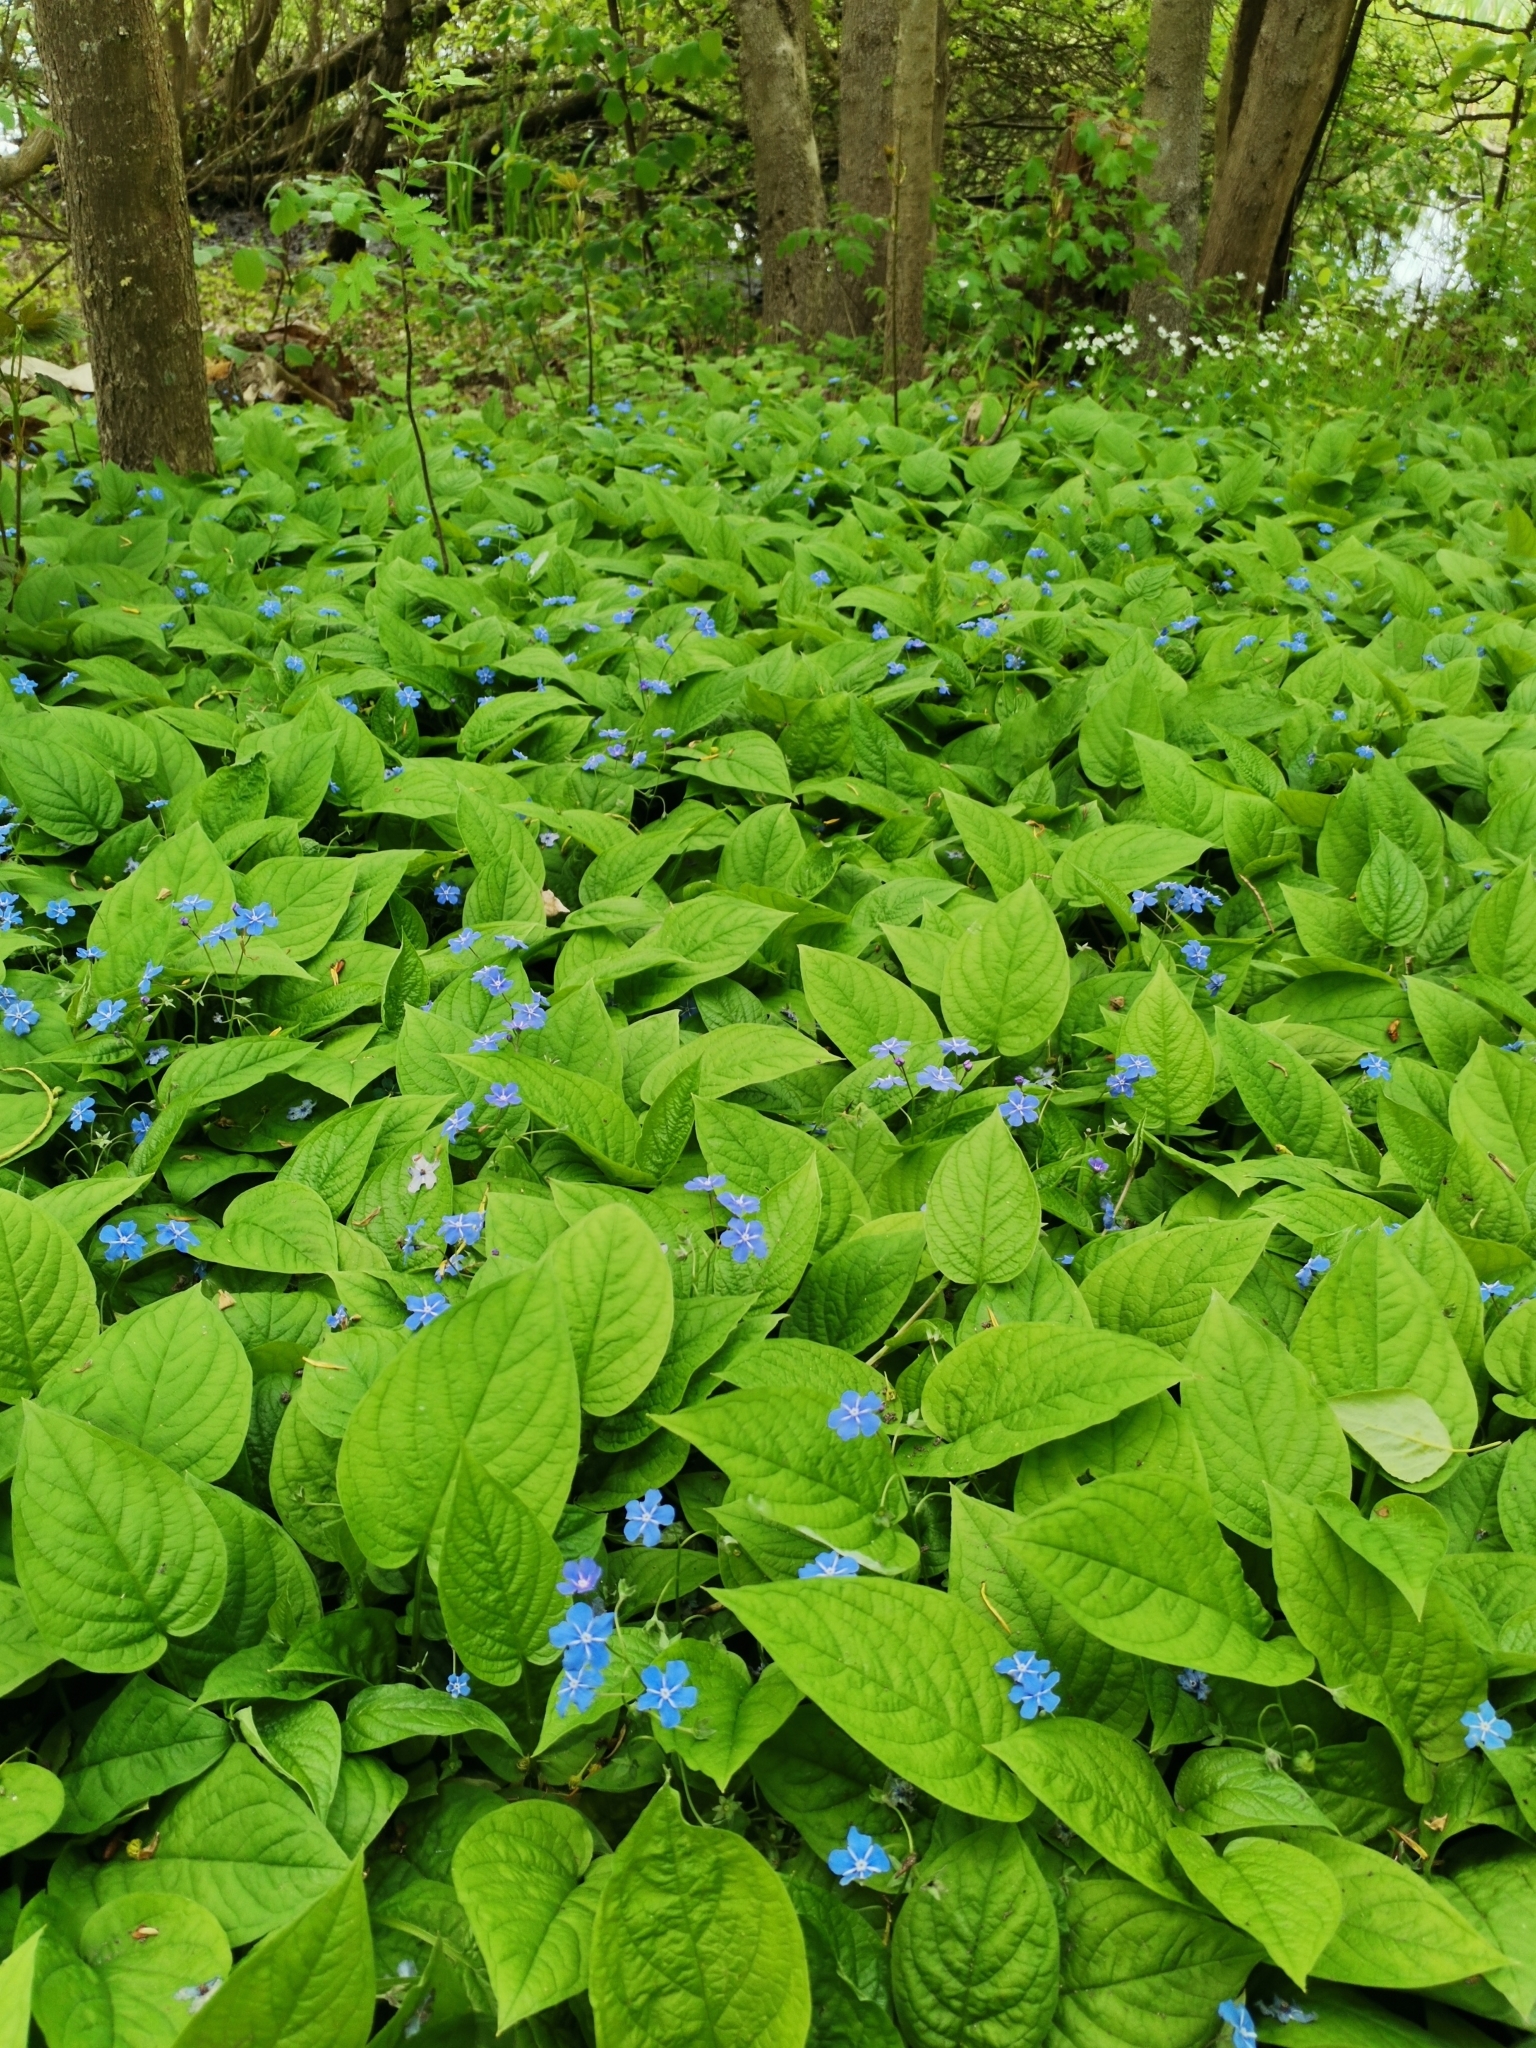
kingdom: Plantae
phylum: Tracheophyta
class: Magnoliopsida
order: Boraginales
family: Boraginaceae
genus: Omphalodes
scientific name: Omphalodes verna
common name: Blue-eyed-mary
